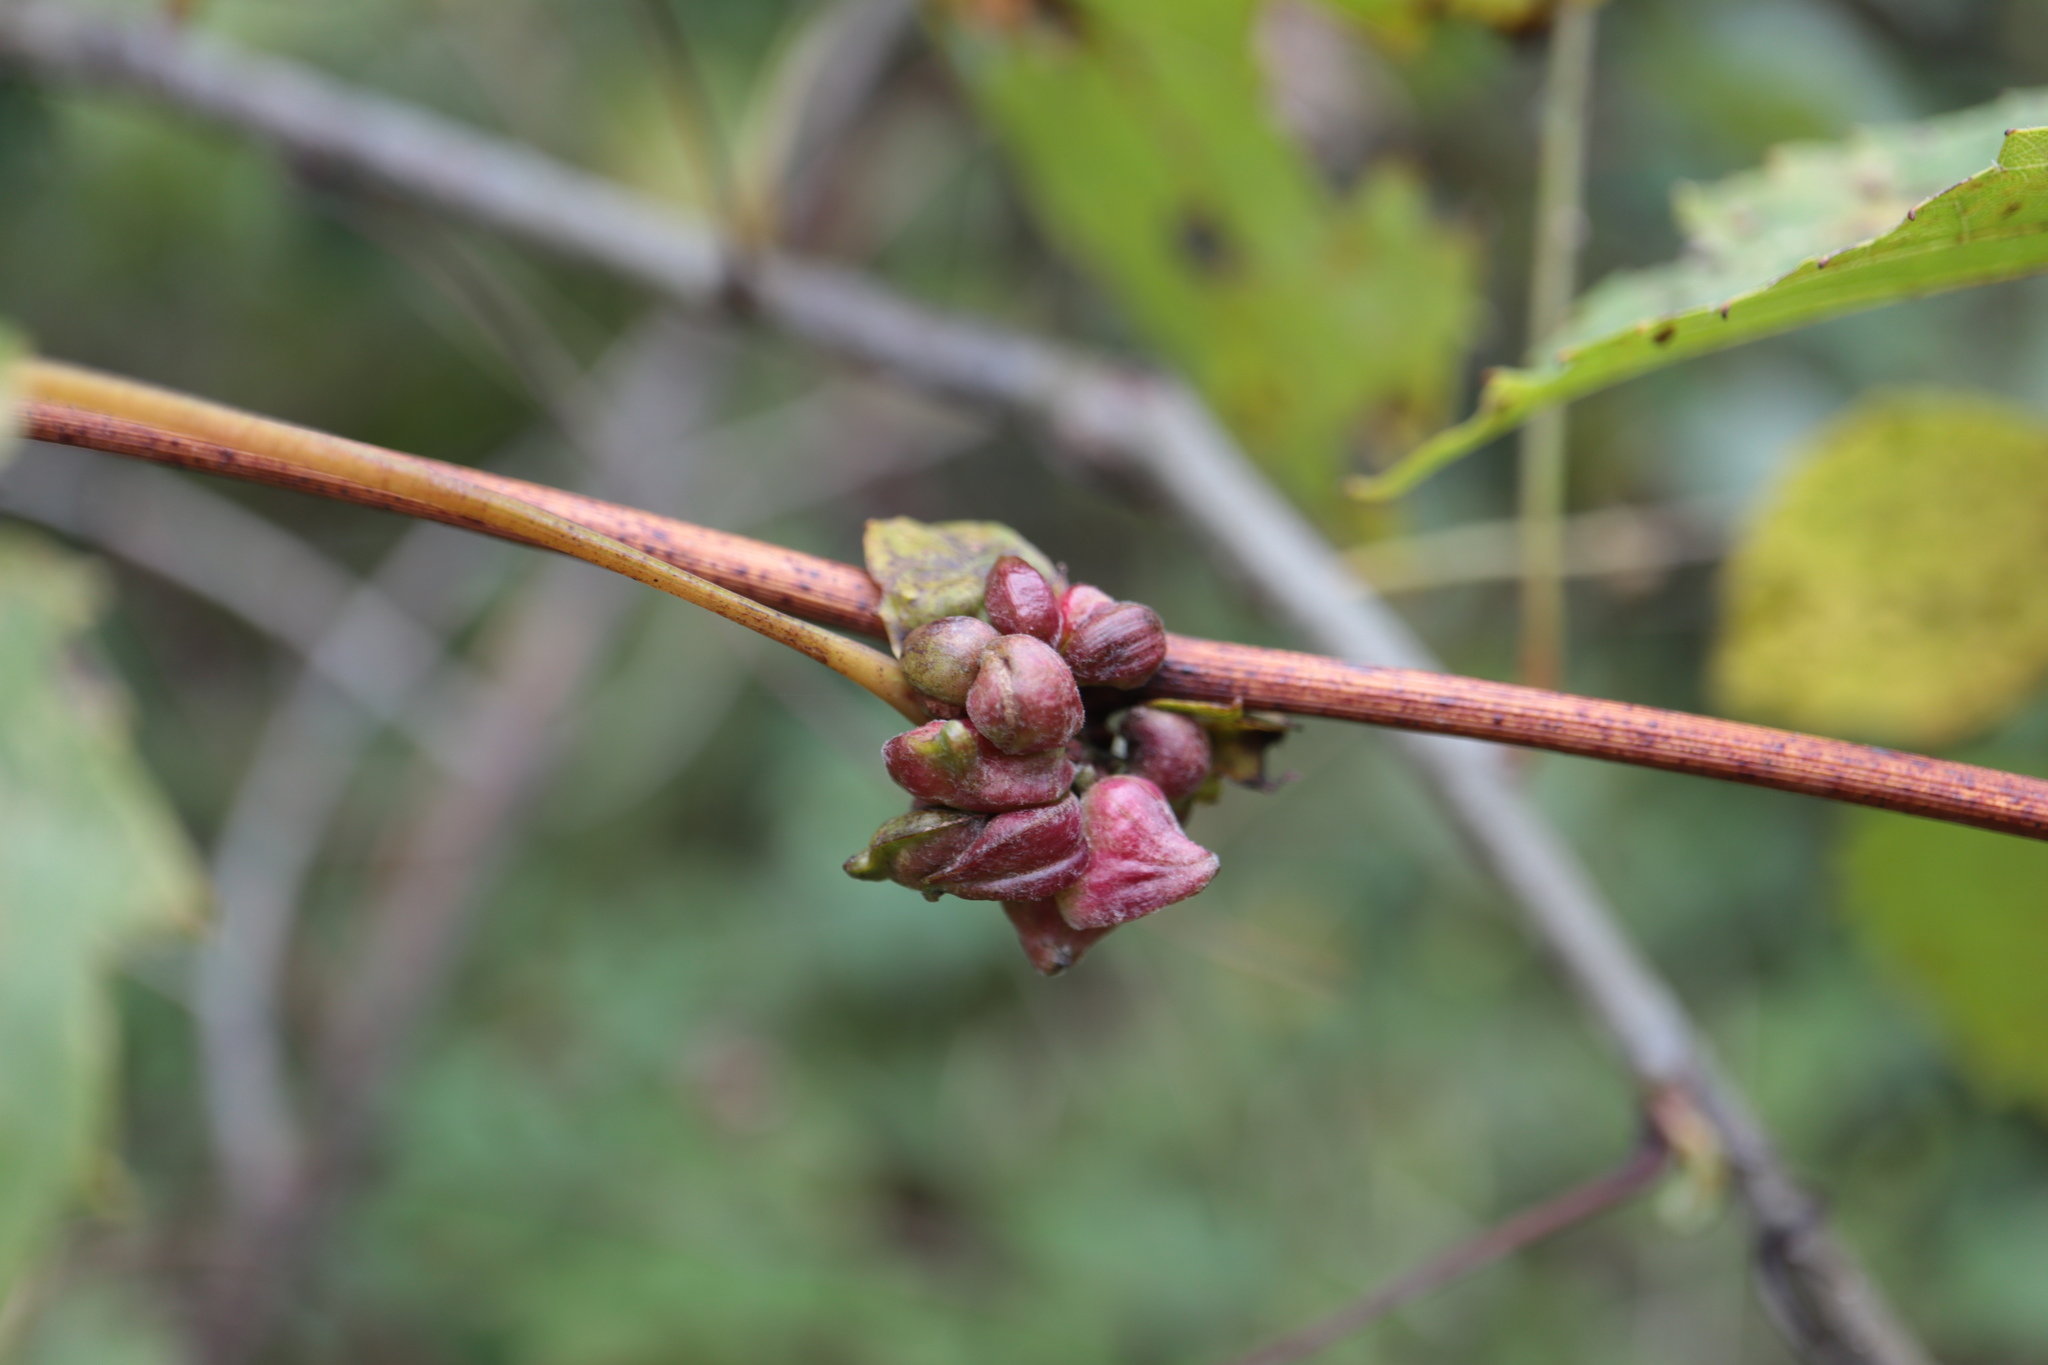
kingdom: Animalia
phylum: Arthropoda
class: Insecta
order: Diptera
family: Cecidomyiidae
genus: Ampelomyia
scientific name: Ampelomyia vitiscoryloides
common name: Grape filbert gall
